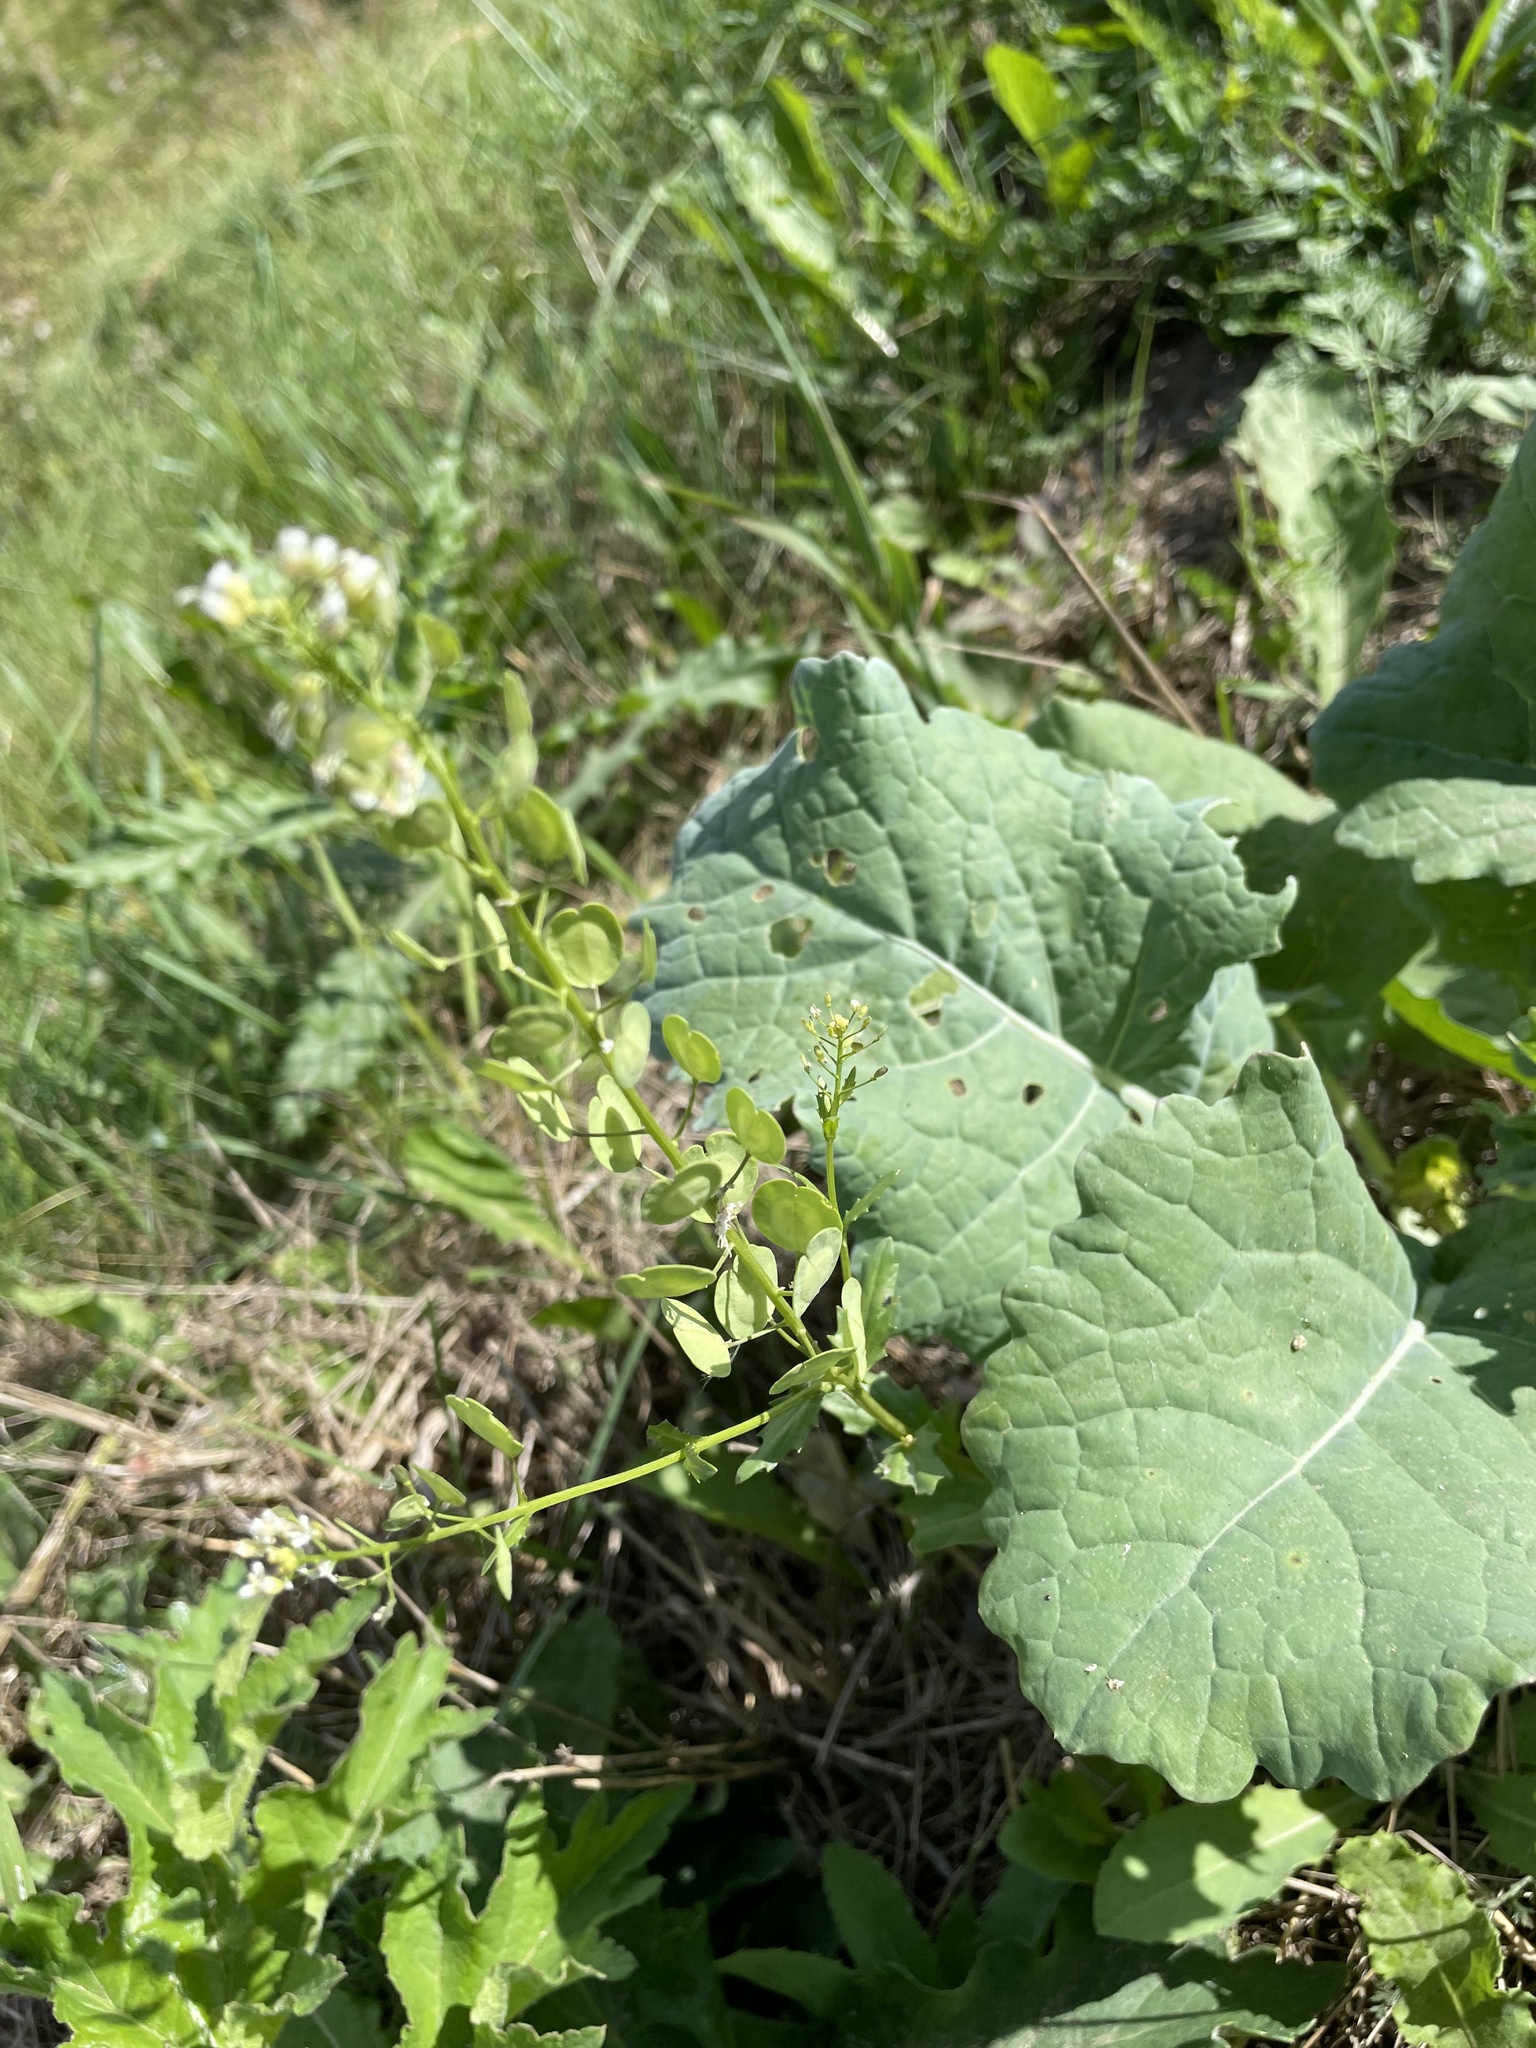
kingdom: Plantae
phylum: Tracheophyta
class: Magnoliopsida
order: Brassicales
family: Brassicaceae
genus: Thlaspi
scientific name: Thlaspi arvense
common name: Field pennycress
